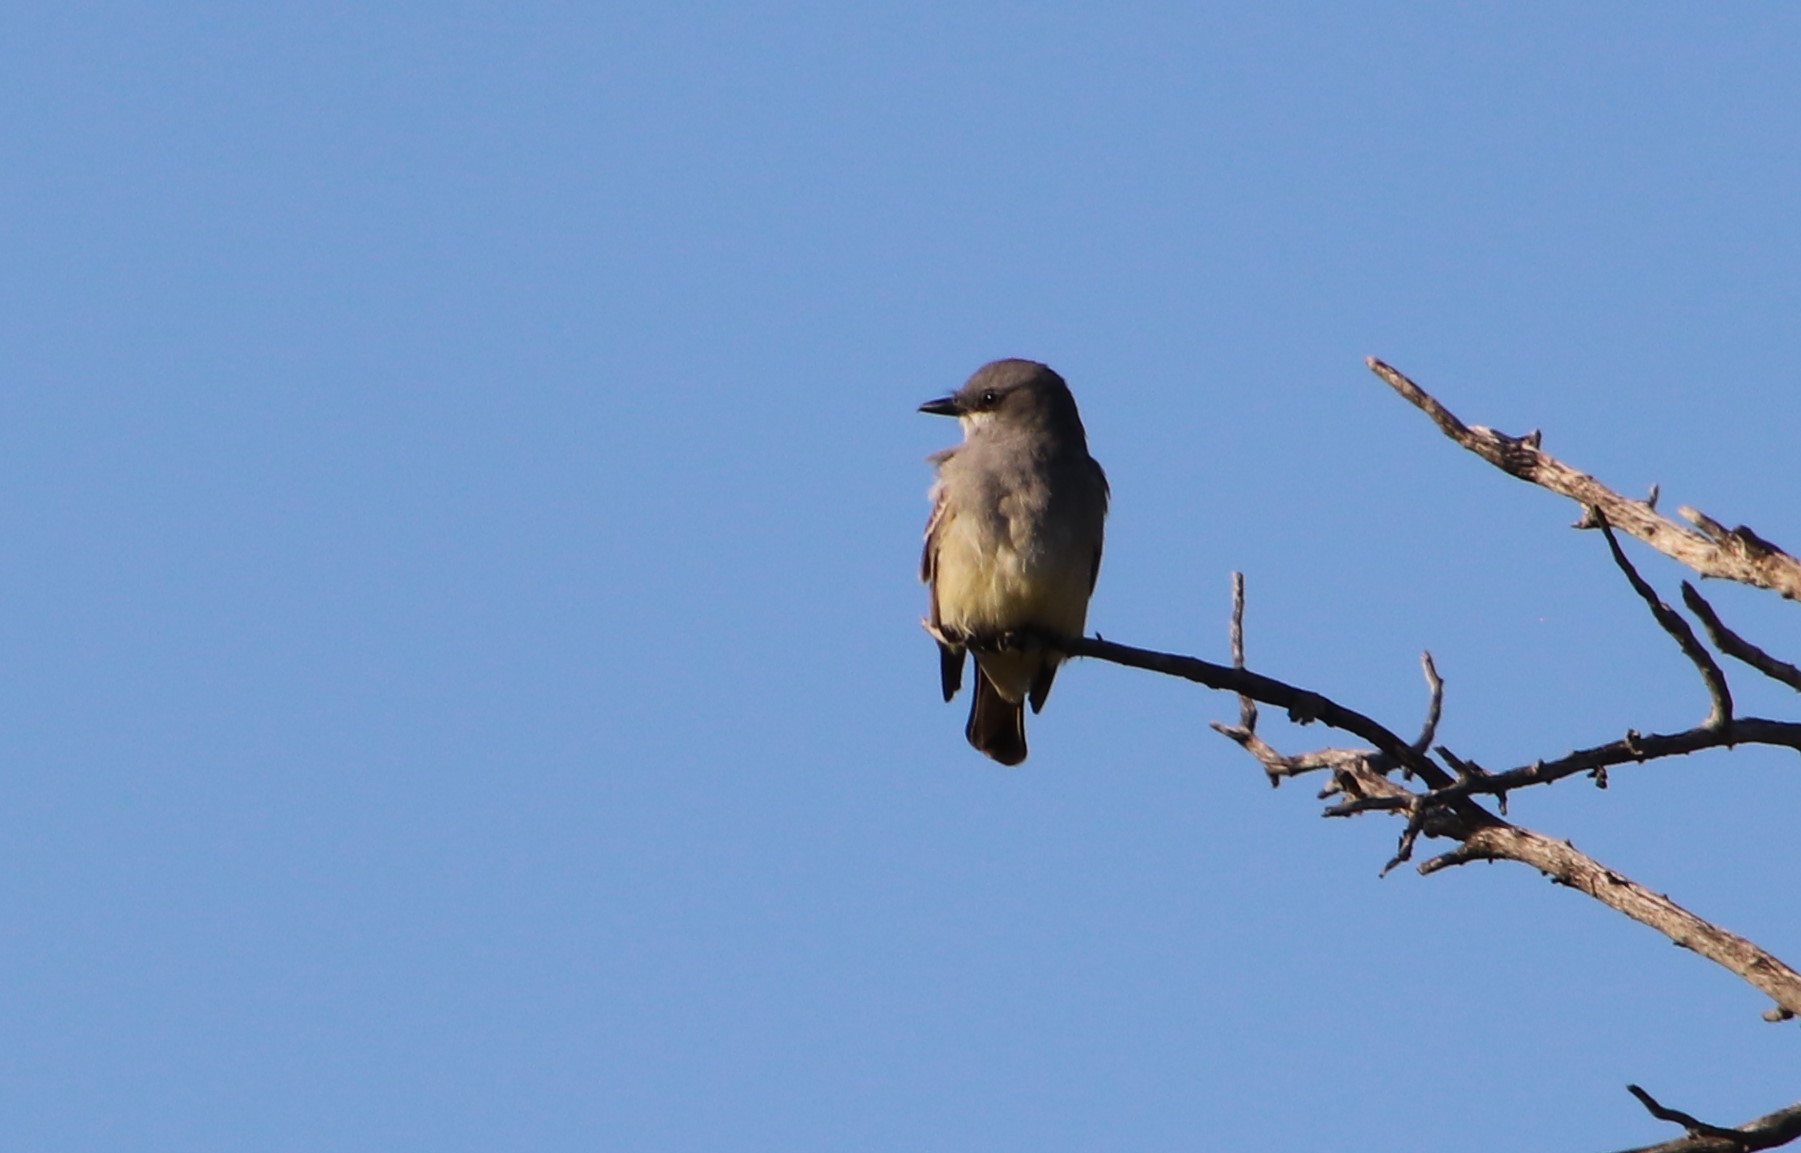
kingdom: Animalia
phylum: Chordata
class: Aves
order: Passeriformes
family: Tyrannidae
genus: Tyrannus
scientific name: Tyrannus vociferans
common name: Cassin's kingbird
